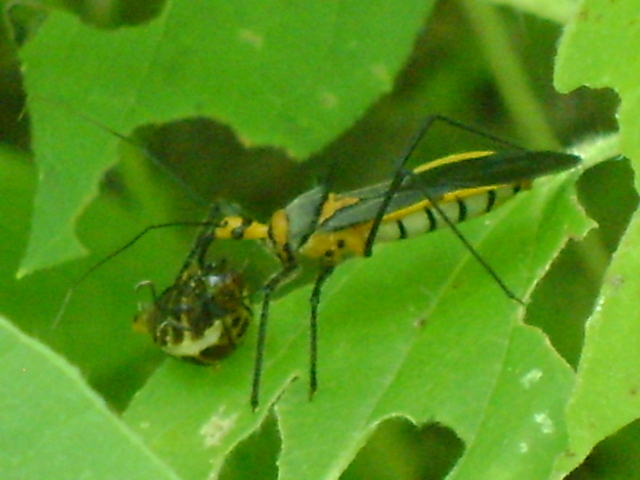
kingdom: Animalia
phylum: Arthropoda
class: Insecta
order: Hemiptera
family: Reduviidae
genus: Repipta
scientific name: Repipta fuscipes
